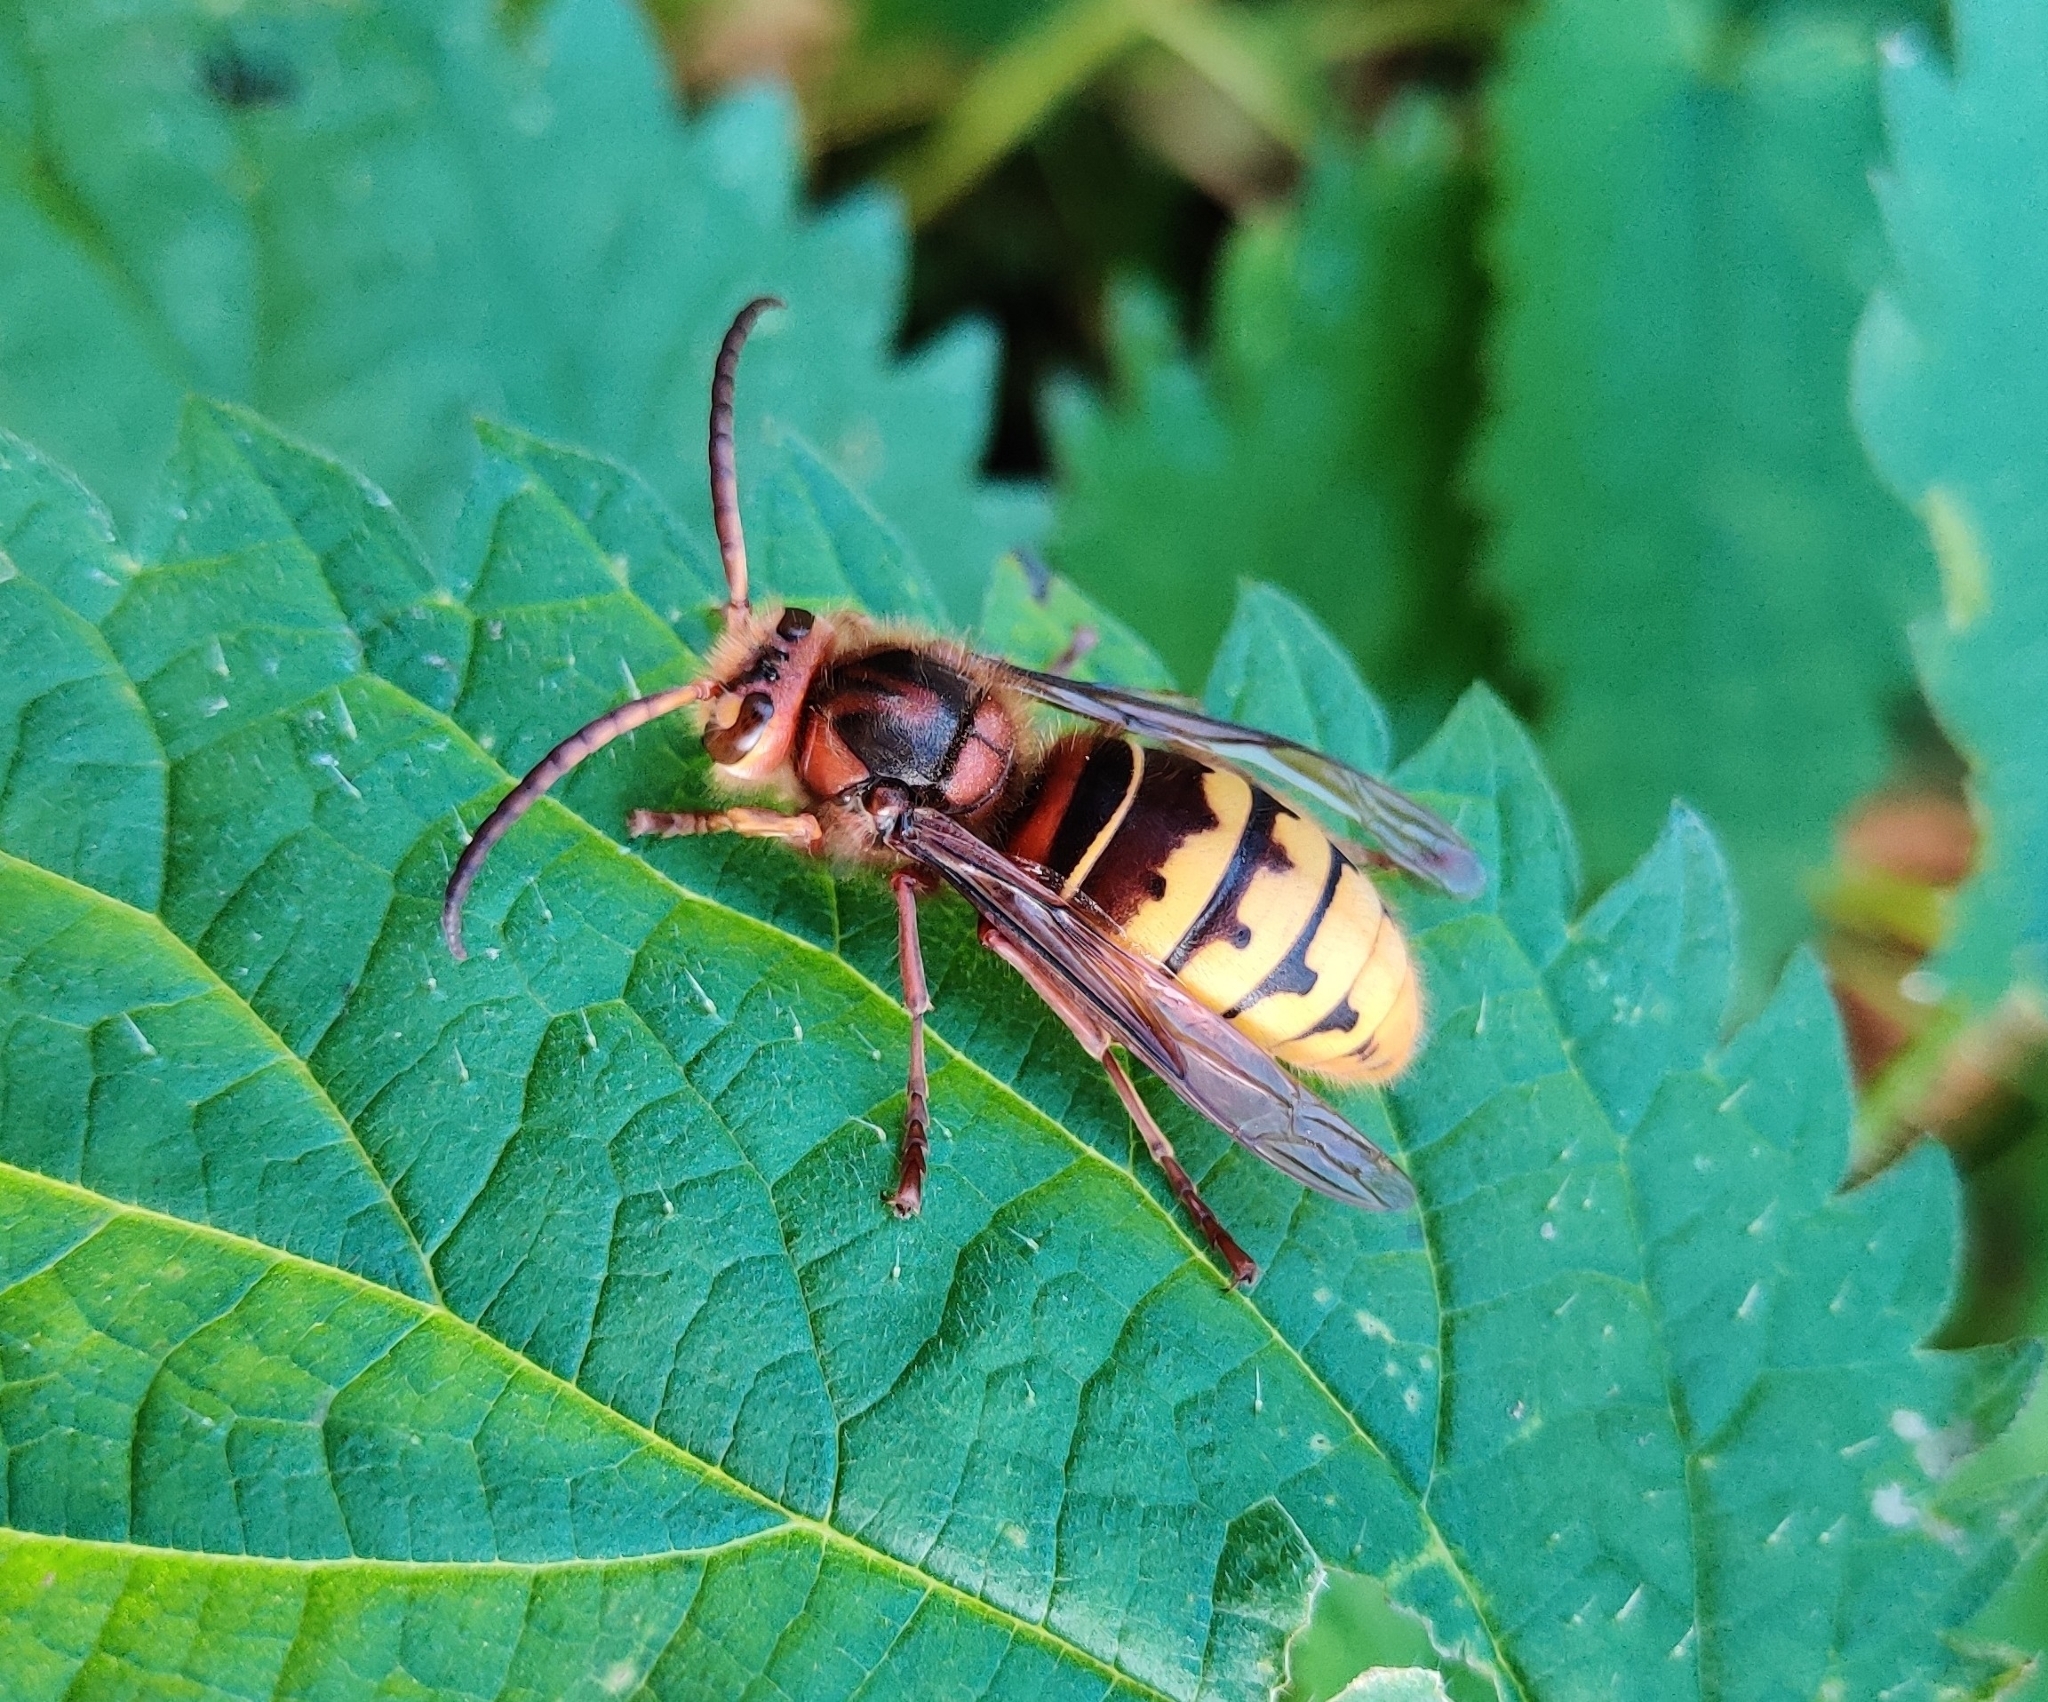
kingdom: Animalia
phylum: Arthropoda
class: Insecta
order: Hymenoptera
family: Vespidae
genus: Vespa
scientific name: Vespa crabro
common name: Hornet
